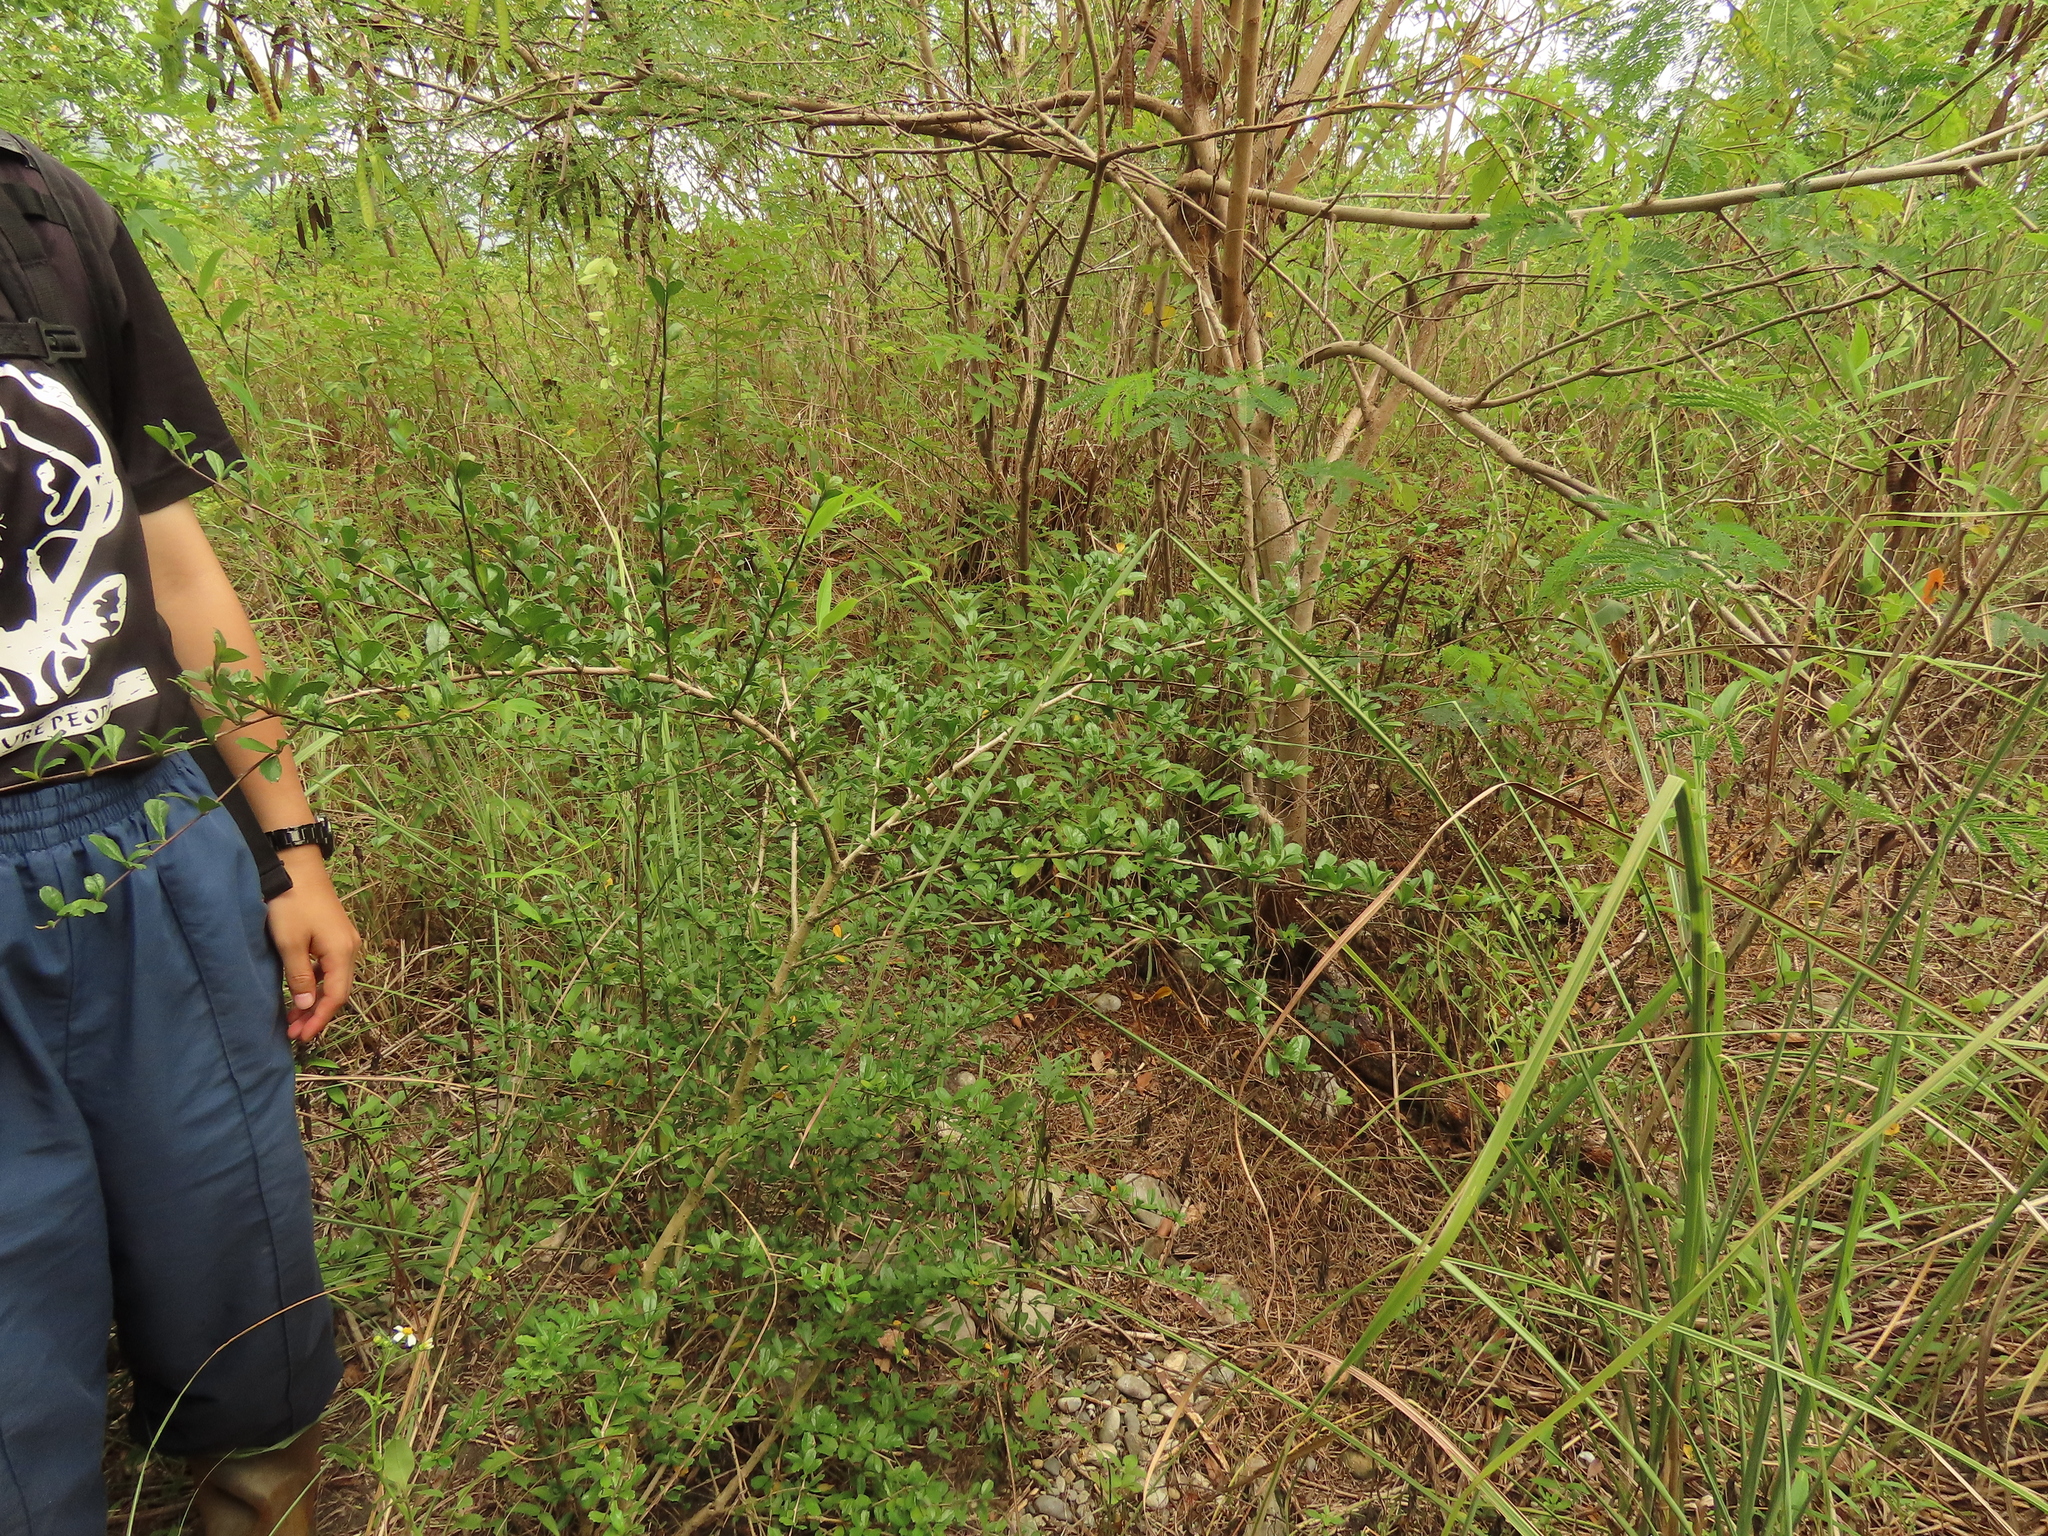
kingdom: Plantae
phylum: Tracheophyta
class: Magnoliopsida
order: Boraginales
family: Ehretiaceae
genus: Ehretia
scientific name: Ehretia microphylla
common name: Fukien-tea
